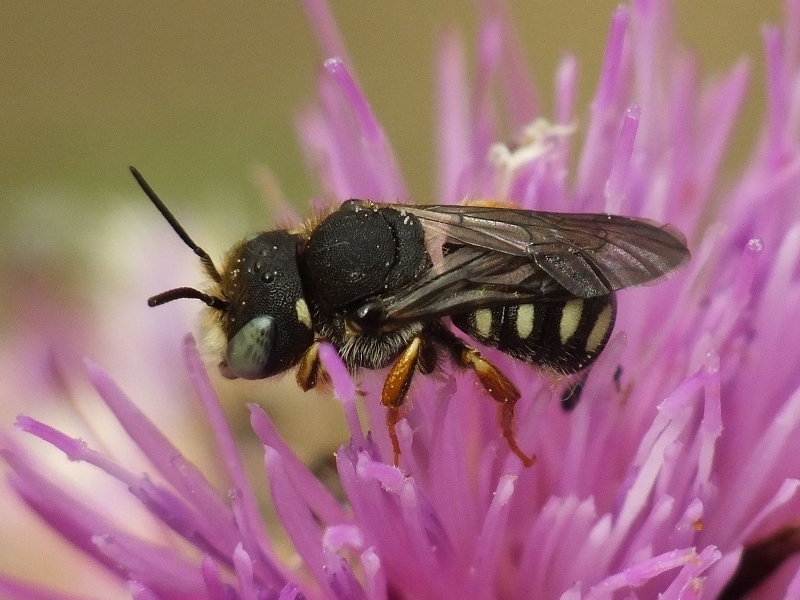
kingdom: Animalia
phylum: Arthropoda
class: Insecta
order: Hymenoptera
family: Megachilidae
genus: Pseudoanthidium
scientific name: Pseudoanthidium nanum
